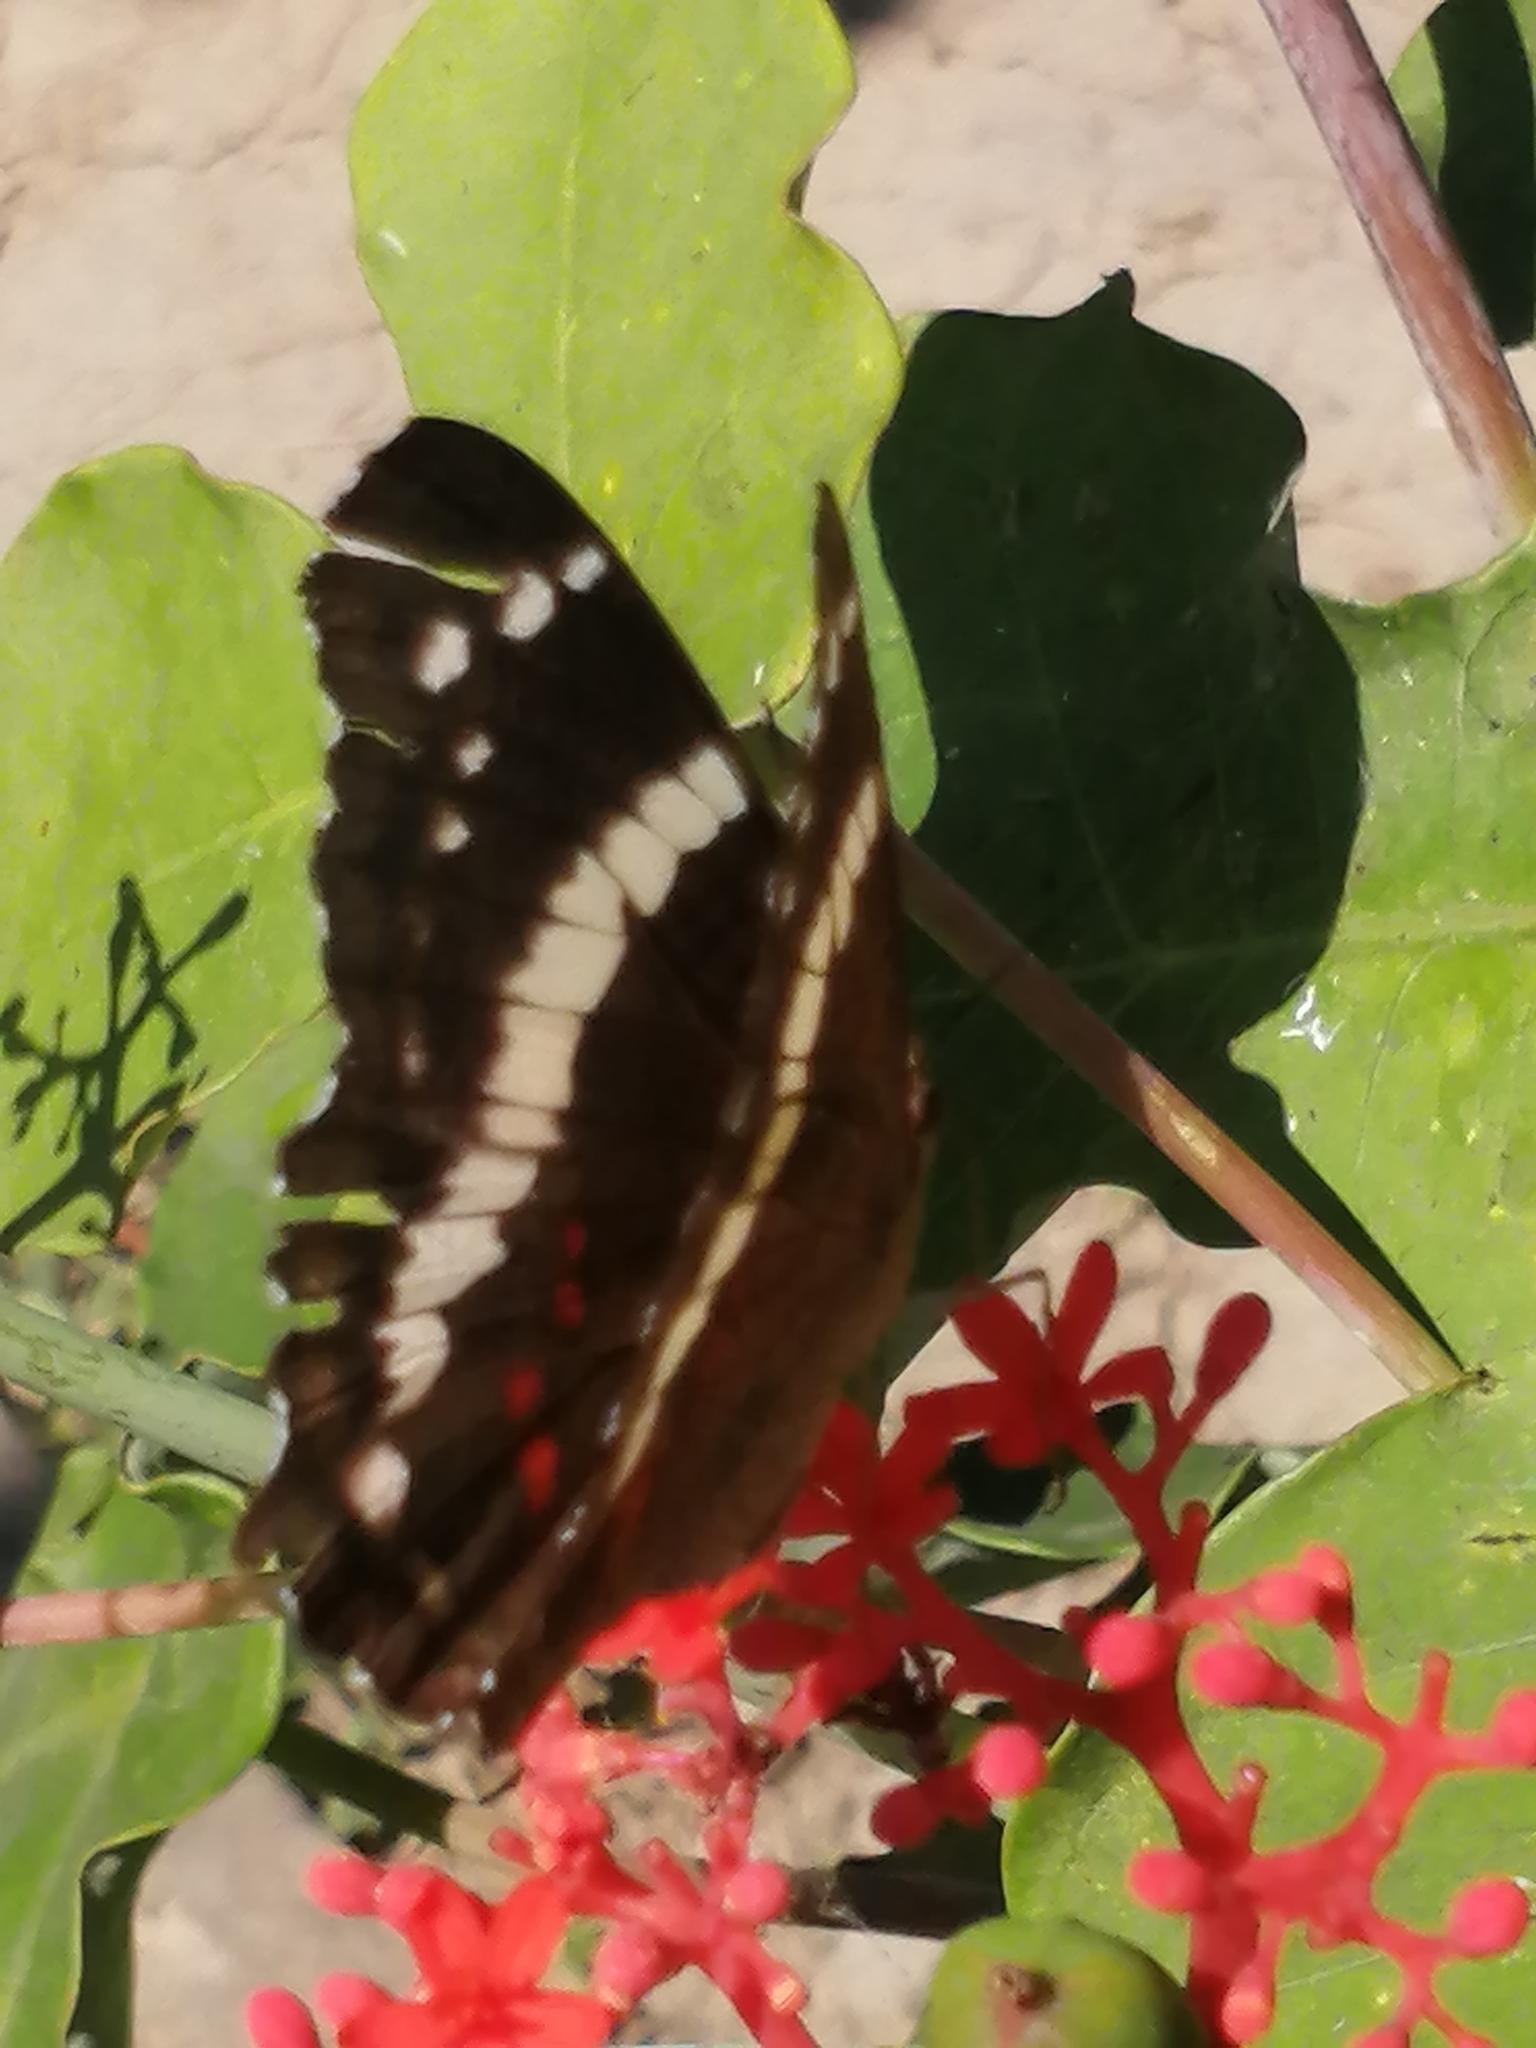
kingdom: Animalia
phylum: Arthropoda
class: Insecta
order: Lepidoptera
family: Nymphalidae
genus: Anartia
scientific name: Anartia fatima
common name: Banded peacock
